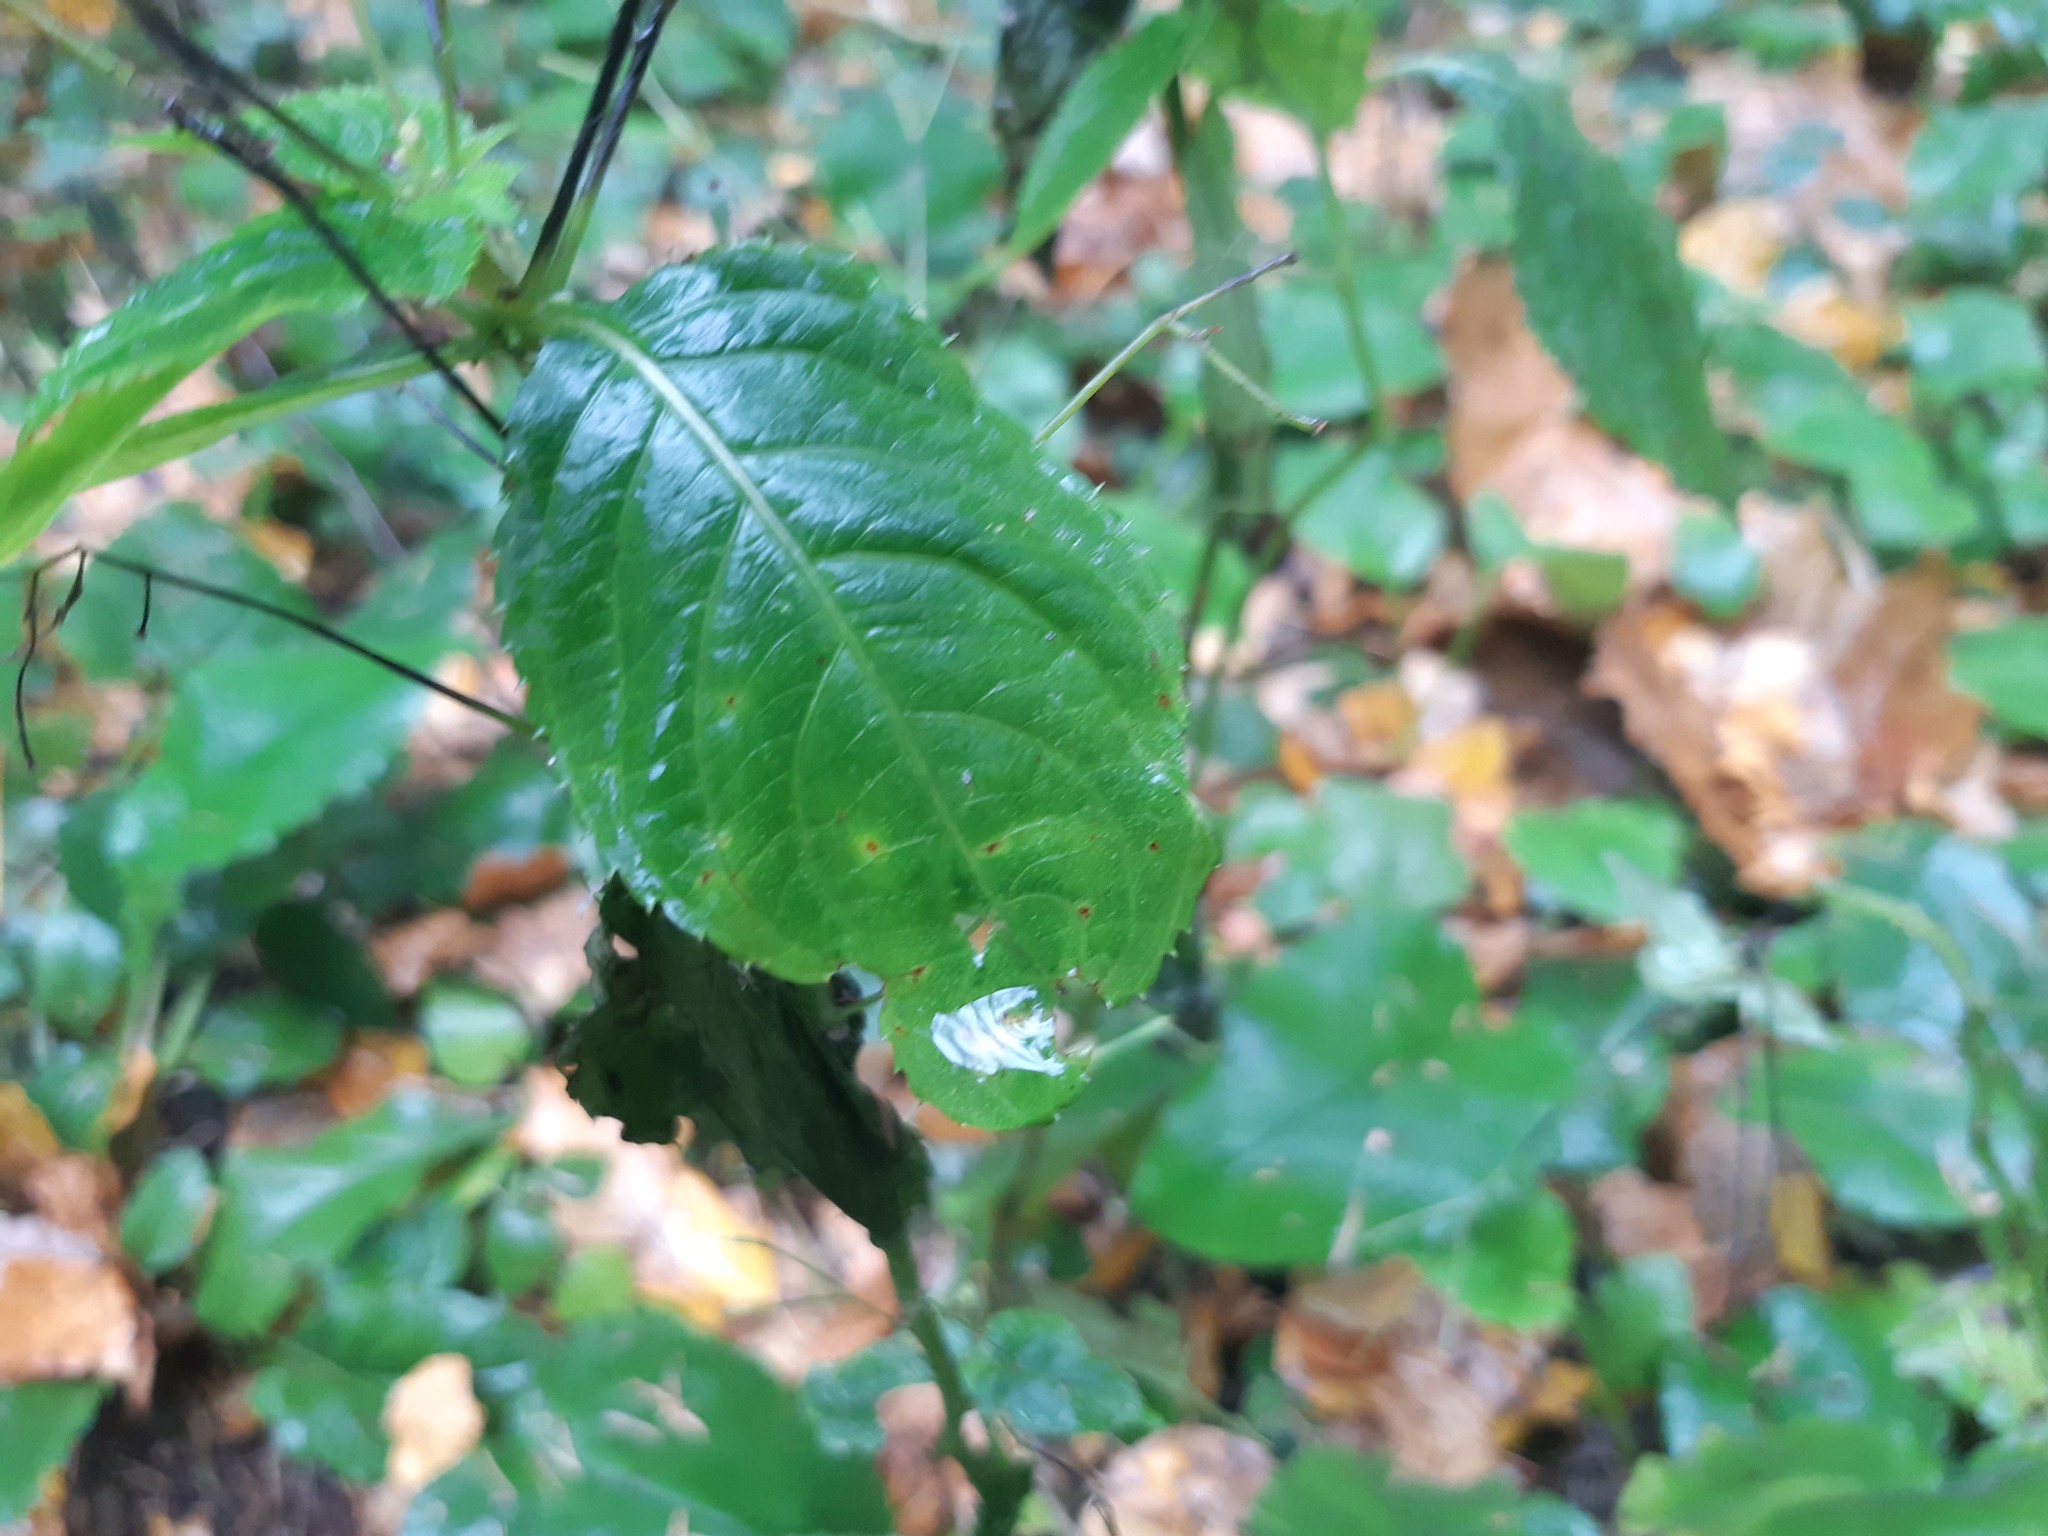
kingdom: Plantae
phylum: Tracheophyta
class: Magnoliopsida
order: Ericales
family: Balsaminaceae
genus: Impatiens
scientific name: Impatiens parviflora
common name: Small balsam
